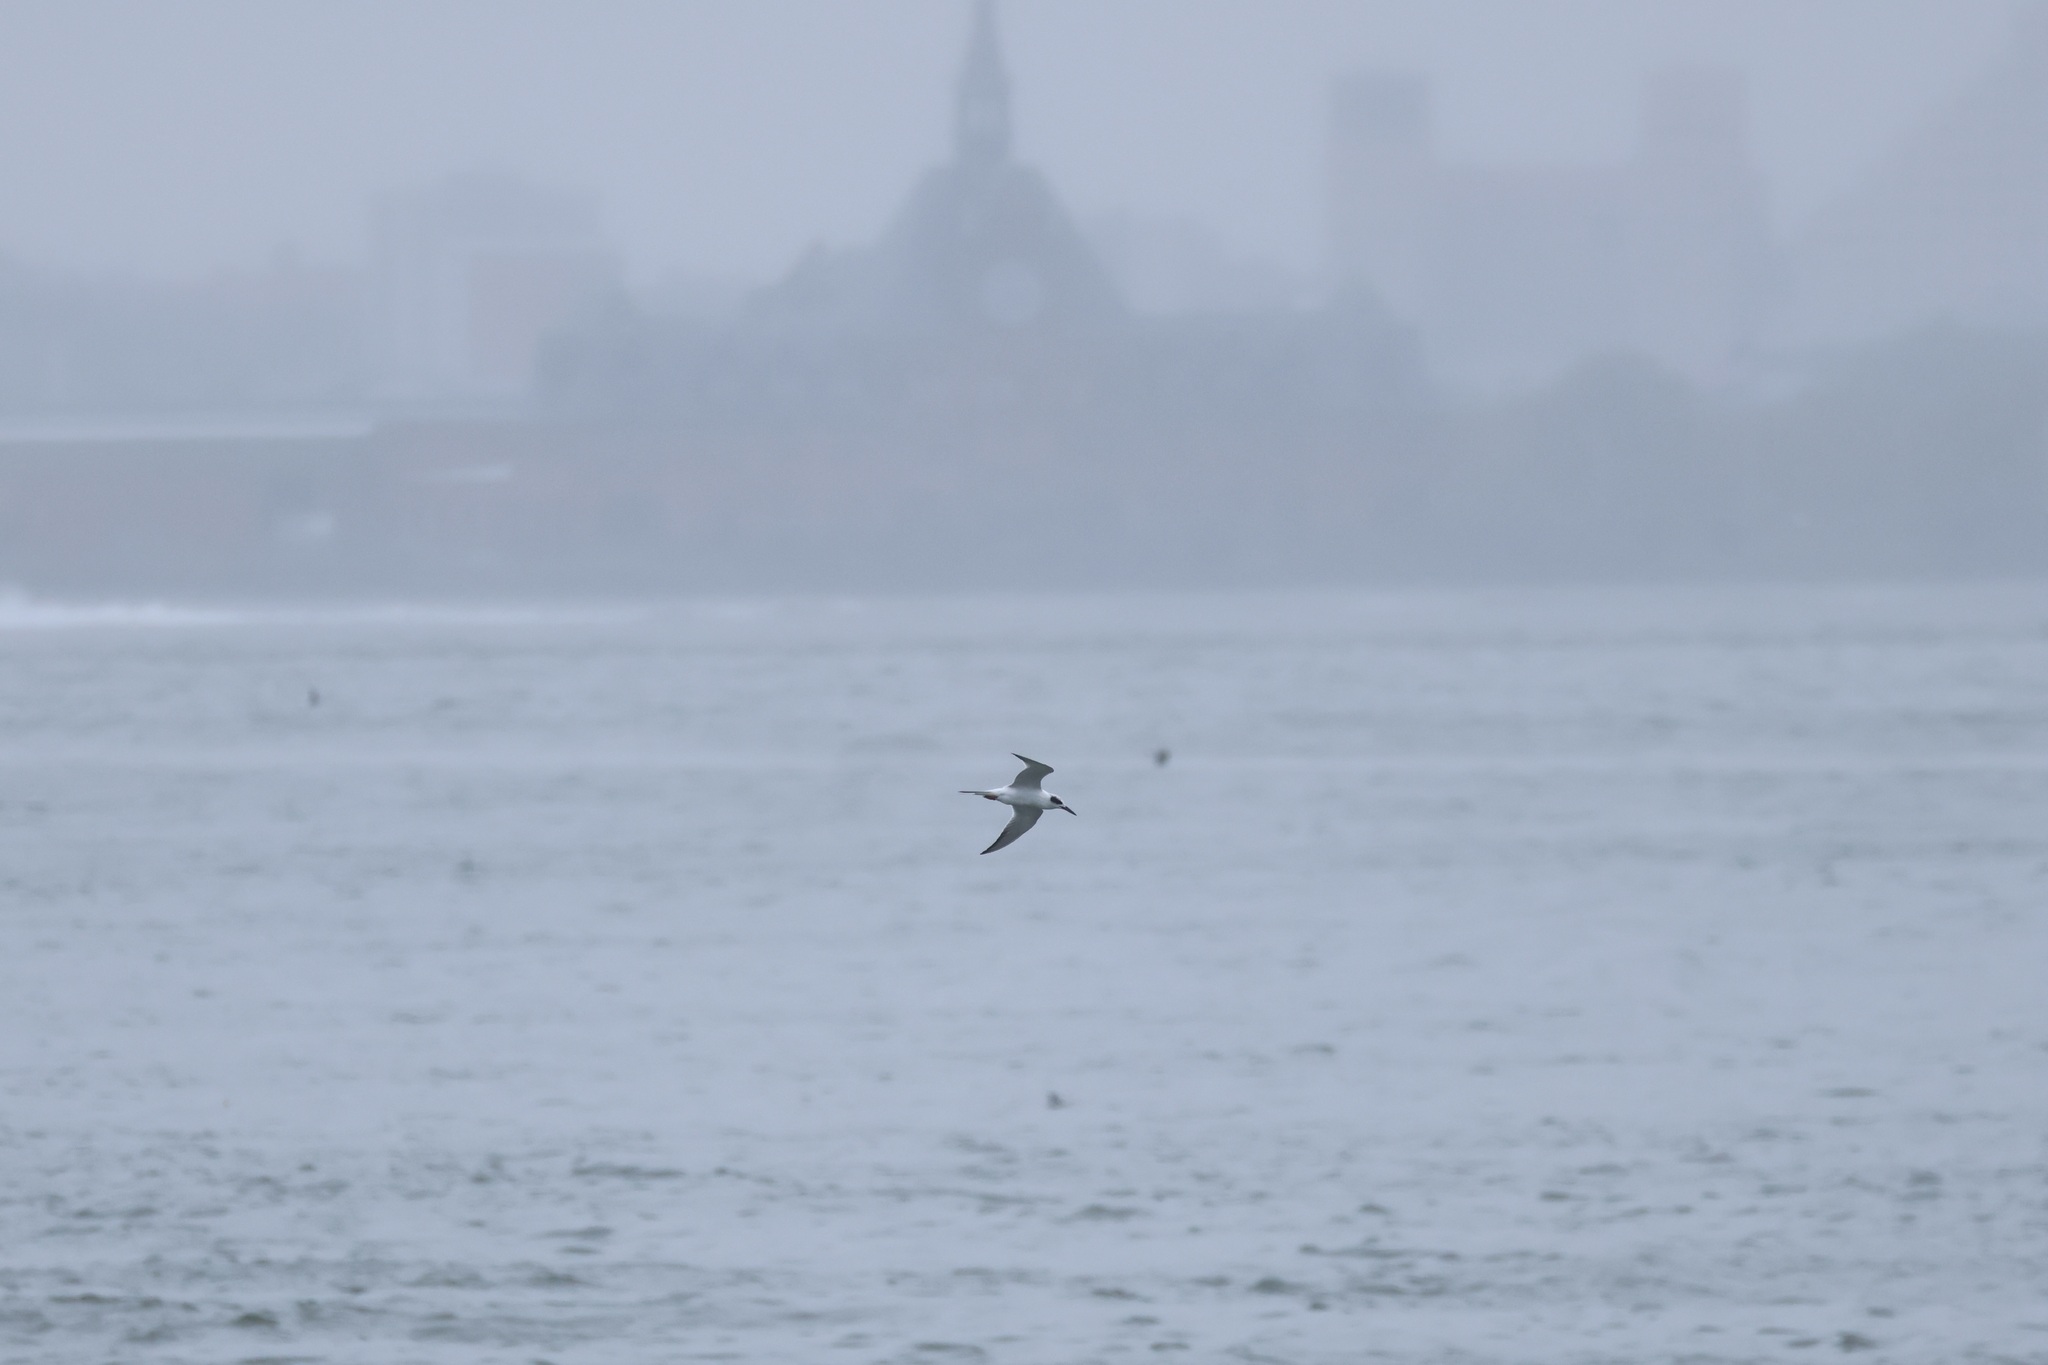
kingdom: Animalia
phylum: Chordata
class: Aves
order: Charadriiformes
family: Laridae
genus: Sterna
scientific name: Sterna forsteri
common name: Forster's tern
